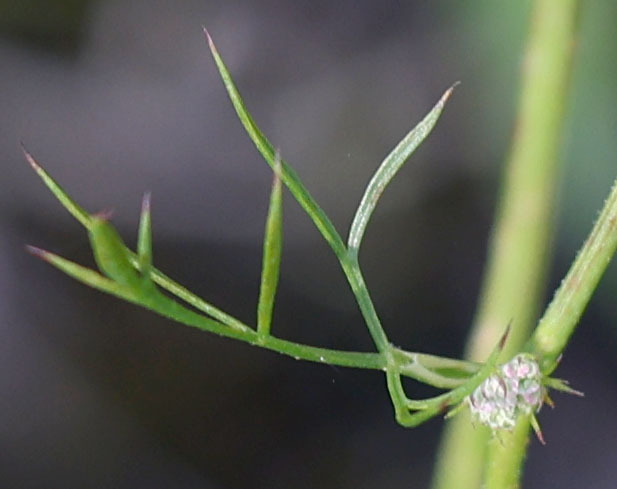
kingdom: Plantae
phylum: Tracheophyta
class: Magnoliopsida
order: Apiales
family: Apiaceae
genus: Daucus
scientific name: Daucus carota
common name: Wild carrot
